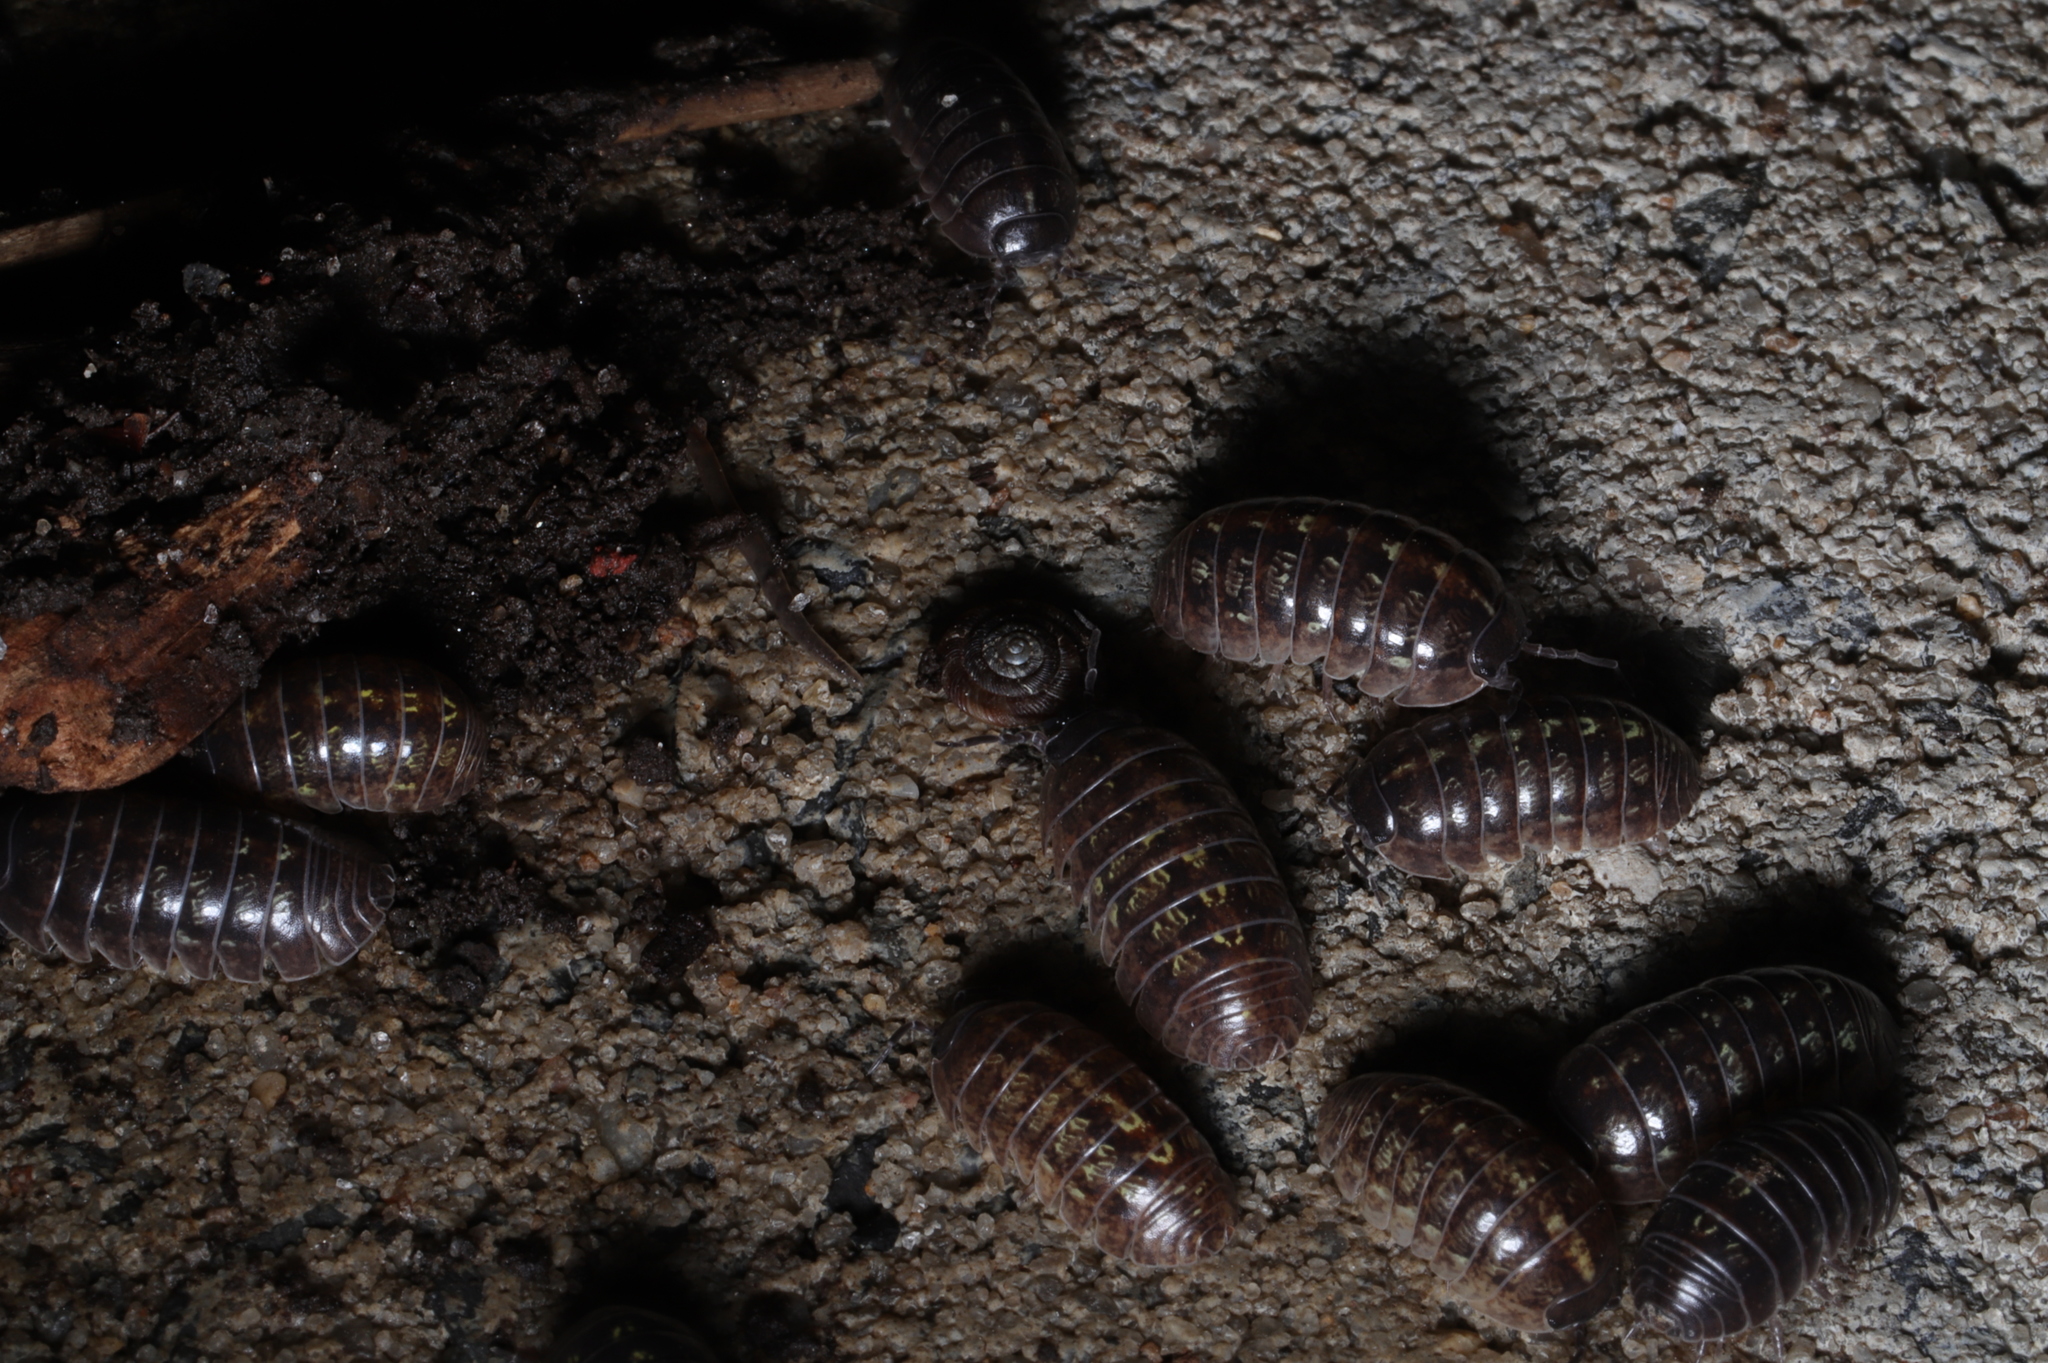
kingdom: Animalia
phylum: Arthropoda
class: Malacostraca
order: Isopoda
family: Armadillidiidae
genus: Armadillidium
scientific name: Armadillidium vulgare
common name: Common pill woodlouse
